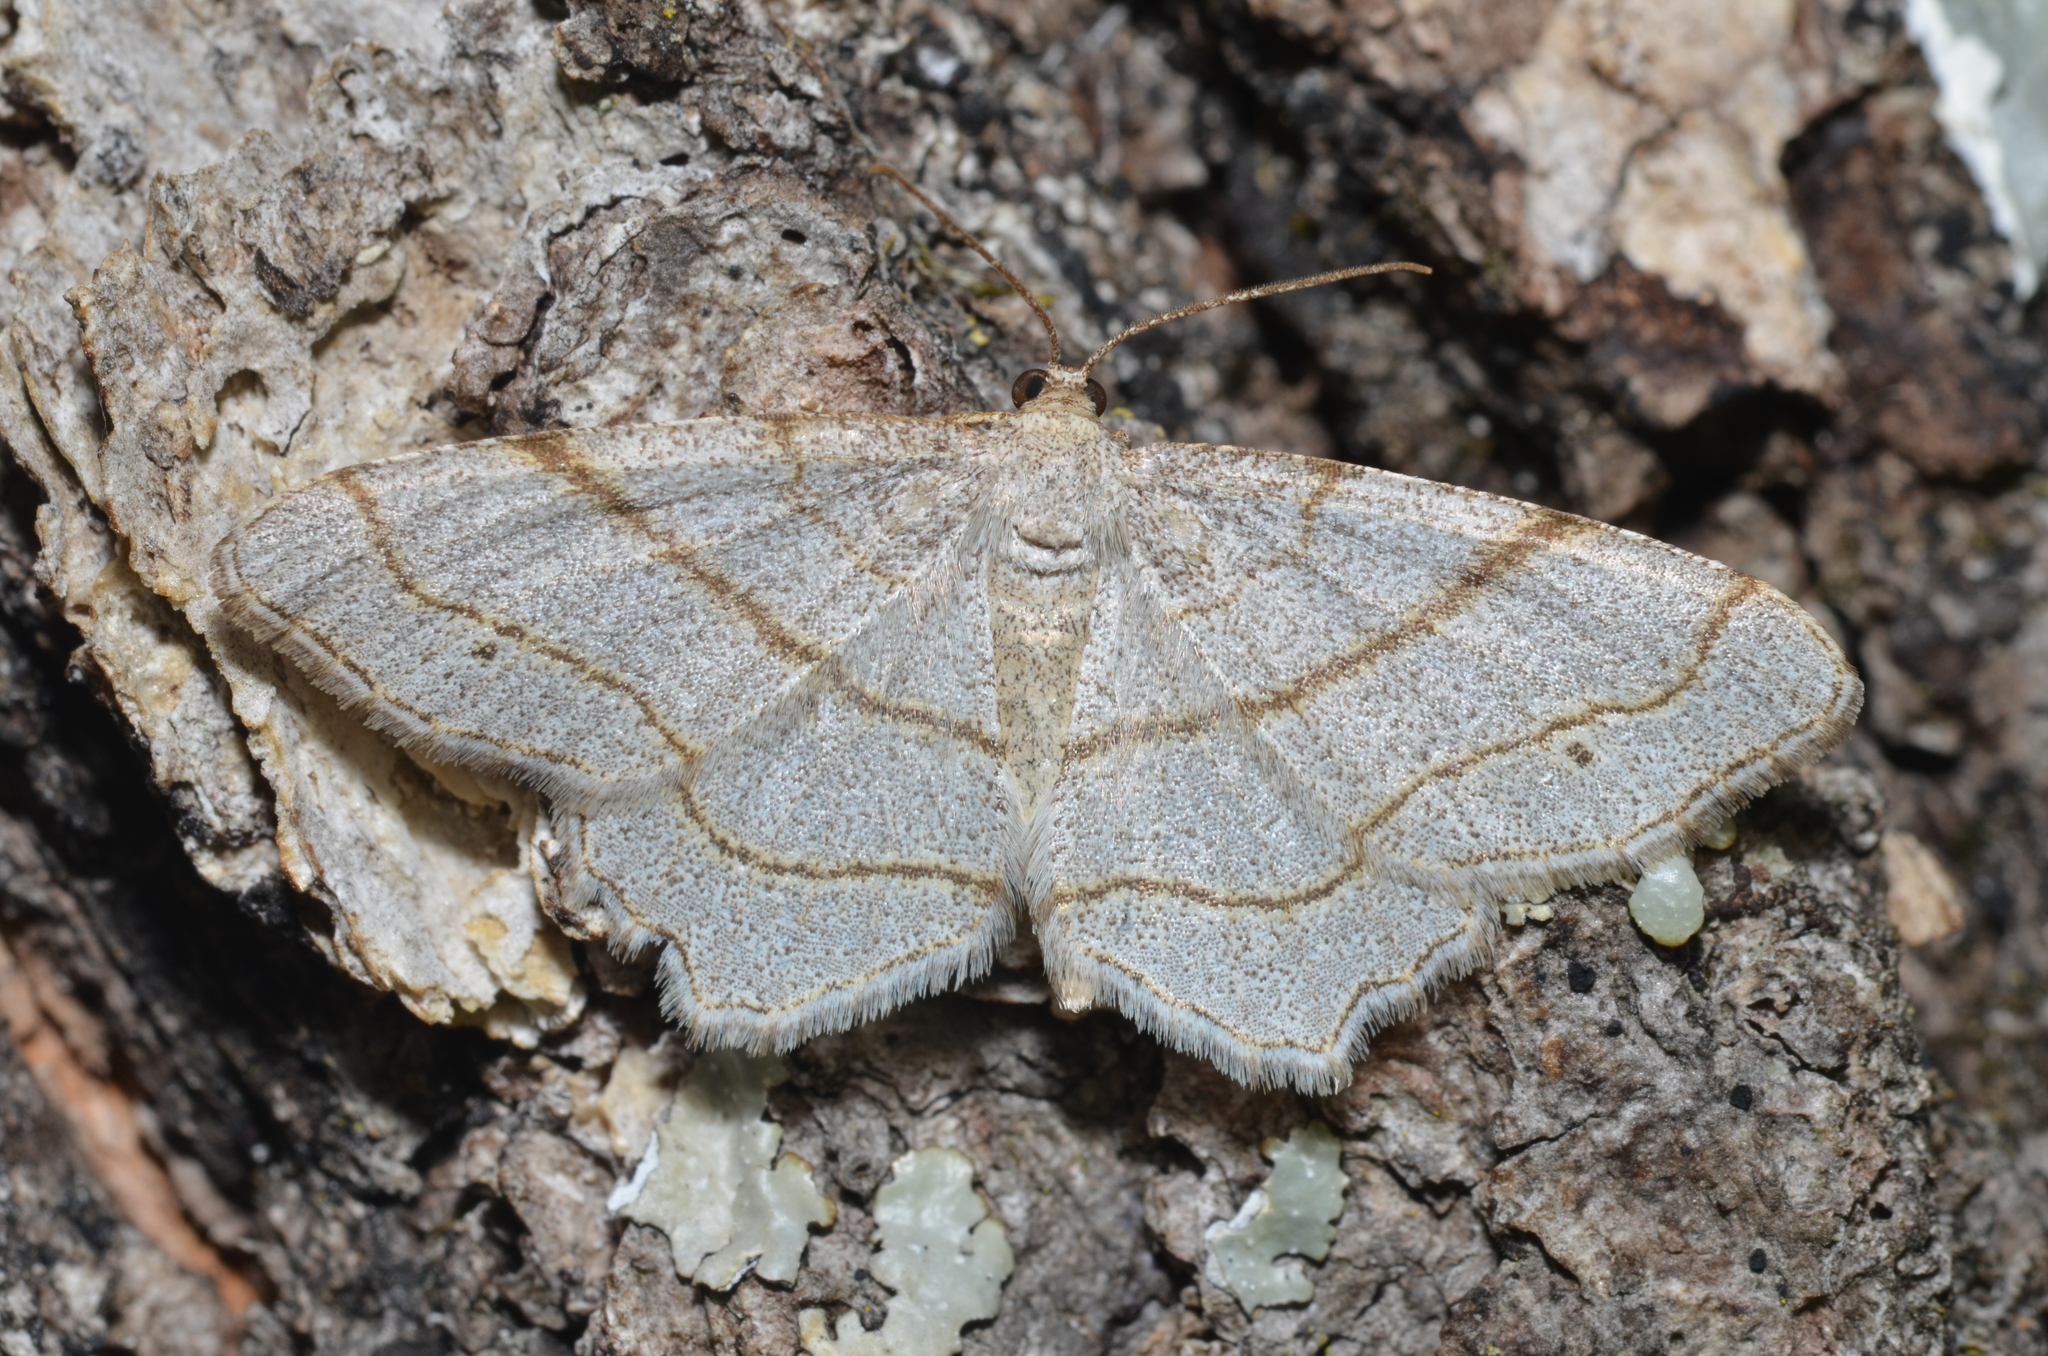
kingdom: Animalia
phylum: Arthropoda
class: Insecta
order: Lepidoptera
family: Geometridae
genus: Trigrammia
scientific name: Trigrammia quadrinotaria
